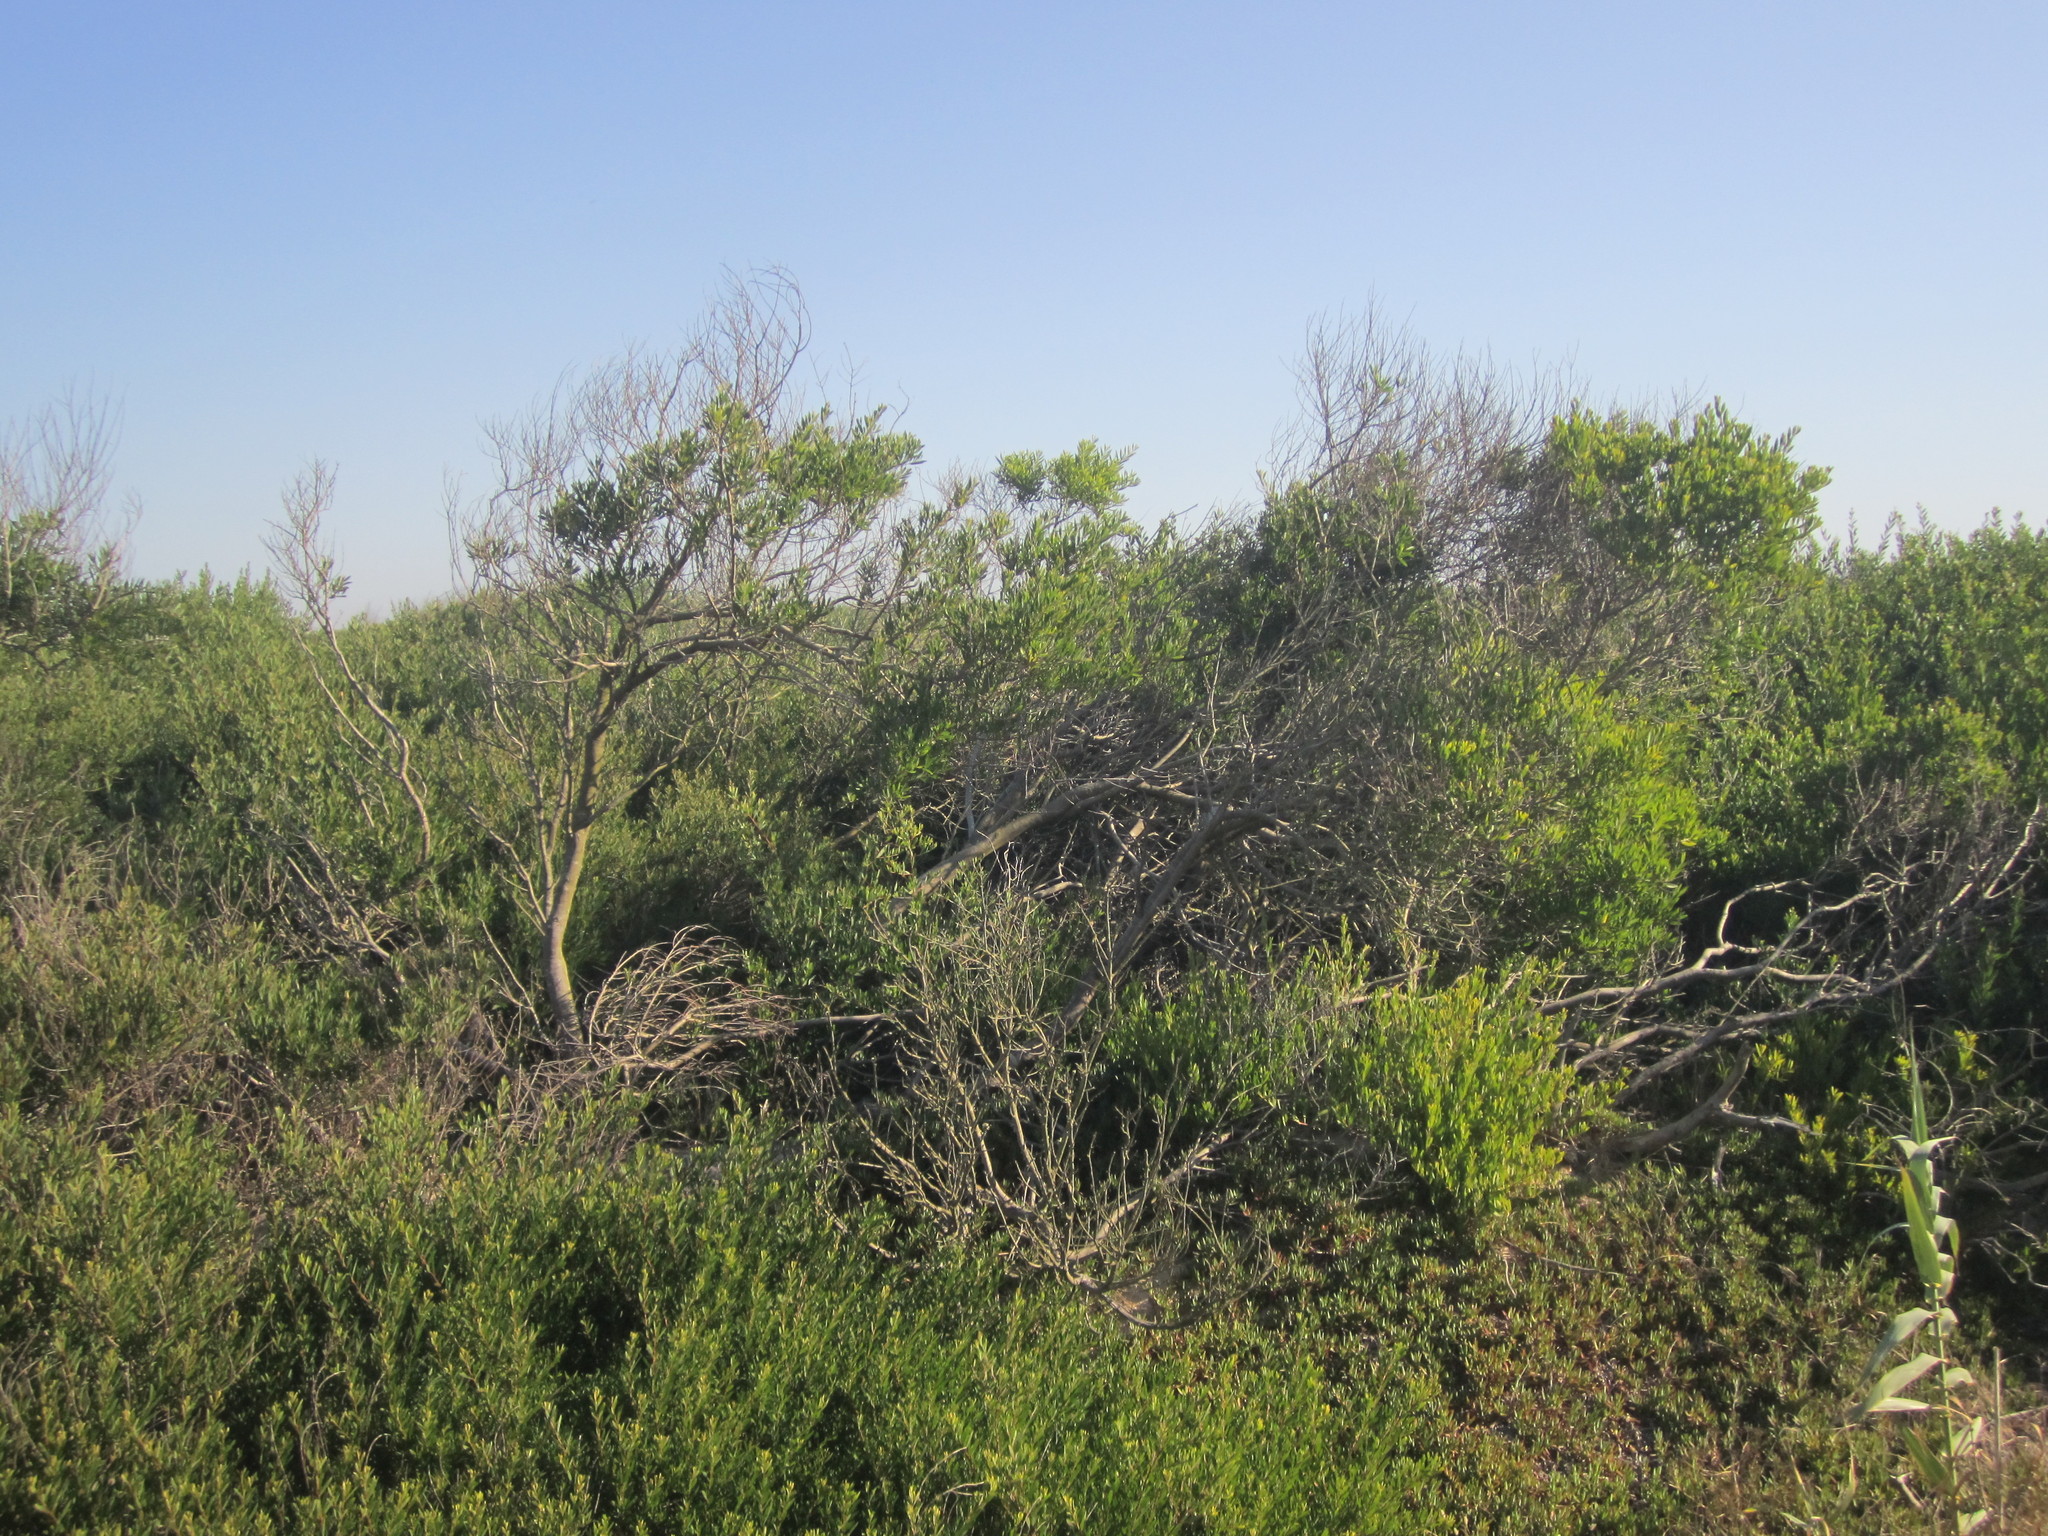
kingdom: Plantae
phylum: Tracheophyta
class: Magnoliopsida
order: Fabales
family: Fabaceae
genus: Acacia
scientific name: Acacia longifolia
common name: Sydney golden wattle
